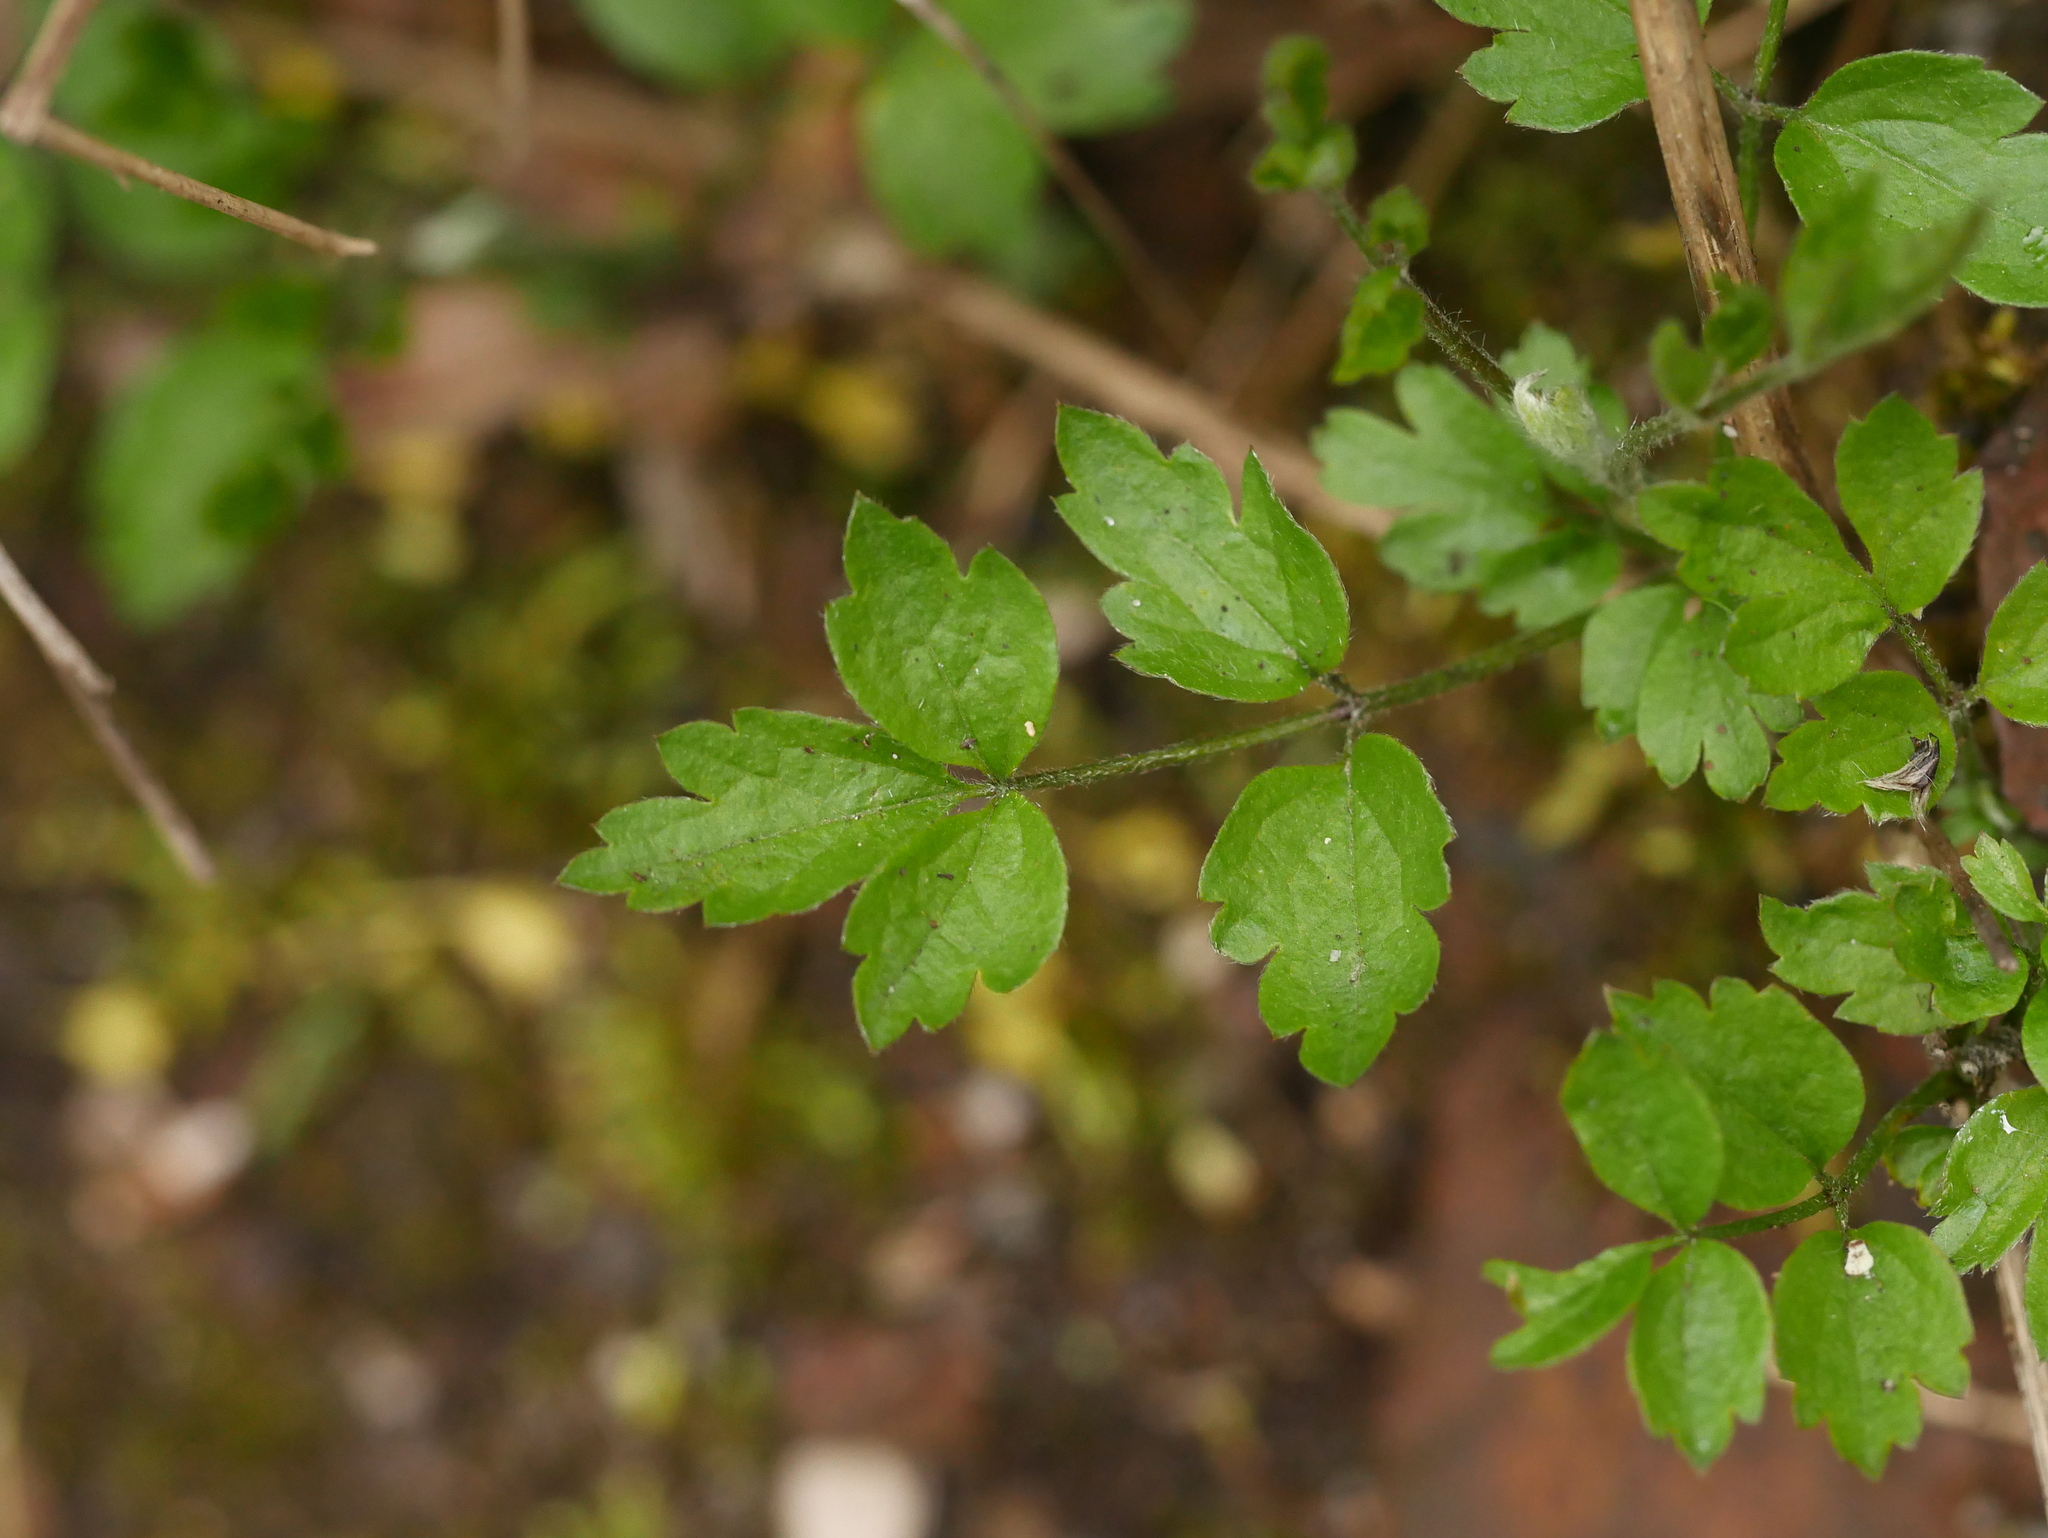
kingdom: Plantae
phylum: Tracheophyta
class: Magnoliopsida
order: Ranunculales
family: Ranunculaceae
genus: Clematis
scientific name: Clematis vitalba
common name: Evergreen clematis
